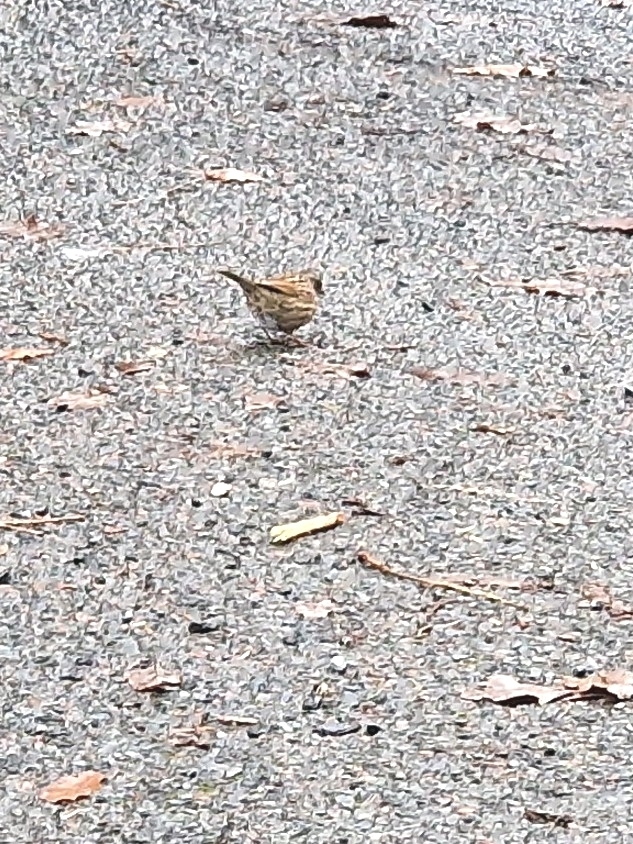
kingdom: Animalia
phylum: Chordata
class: Aves
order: Passeriformes
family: Prunellidae
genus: Prunella
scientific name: Prunella modularis
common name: Dunnock
